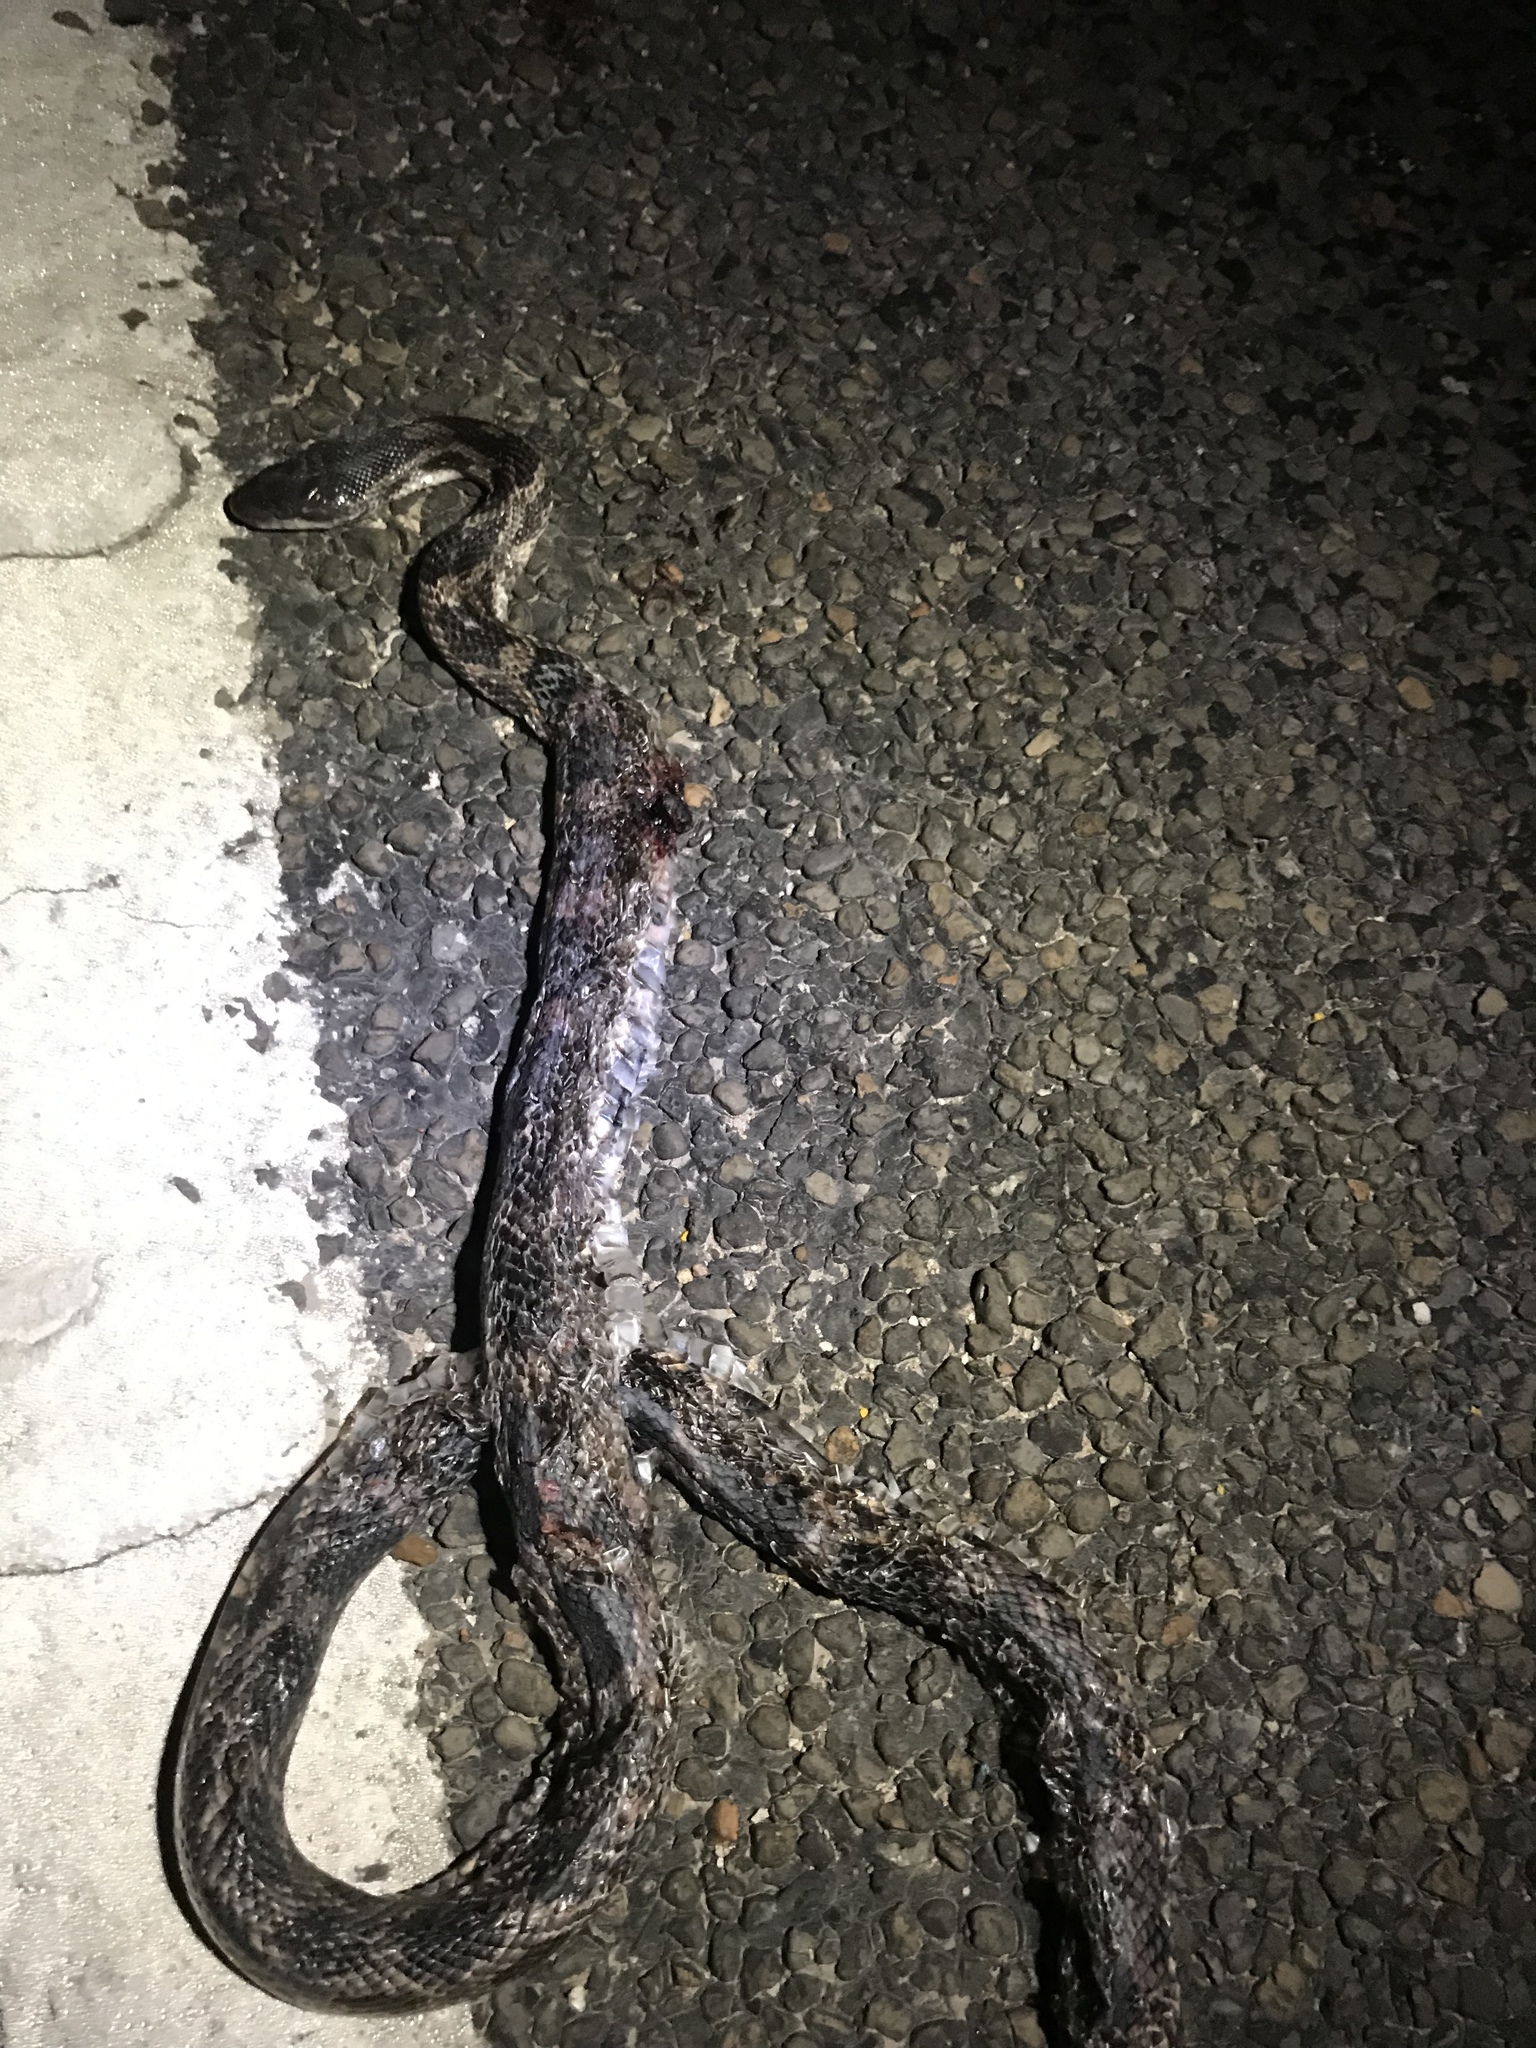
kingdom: Animalia
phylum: Chordata
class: Squamata
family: Colubridae
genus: Pantherophis
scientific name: Pantherophis obsoletus
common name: Black rat snake
